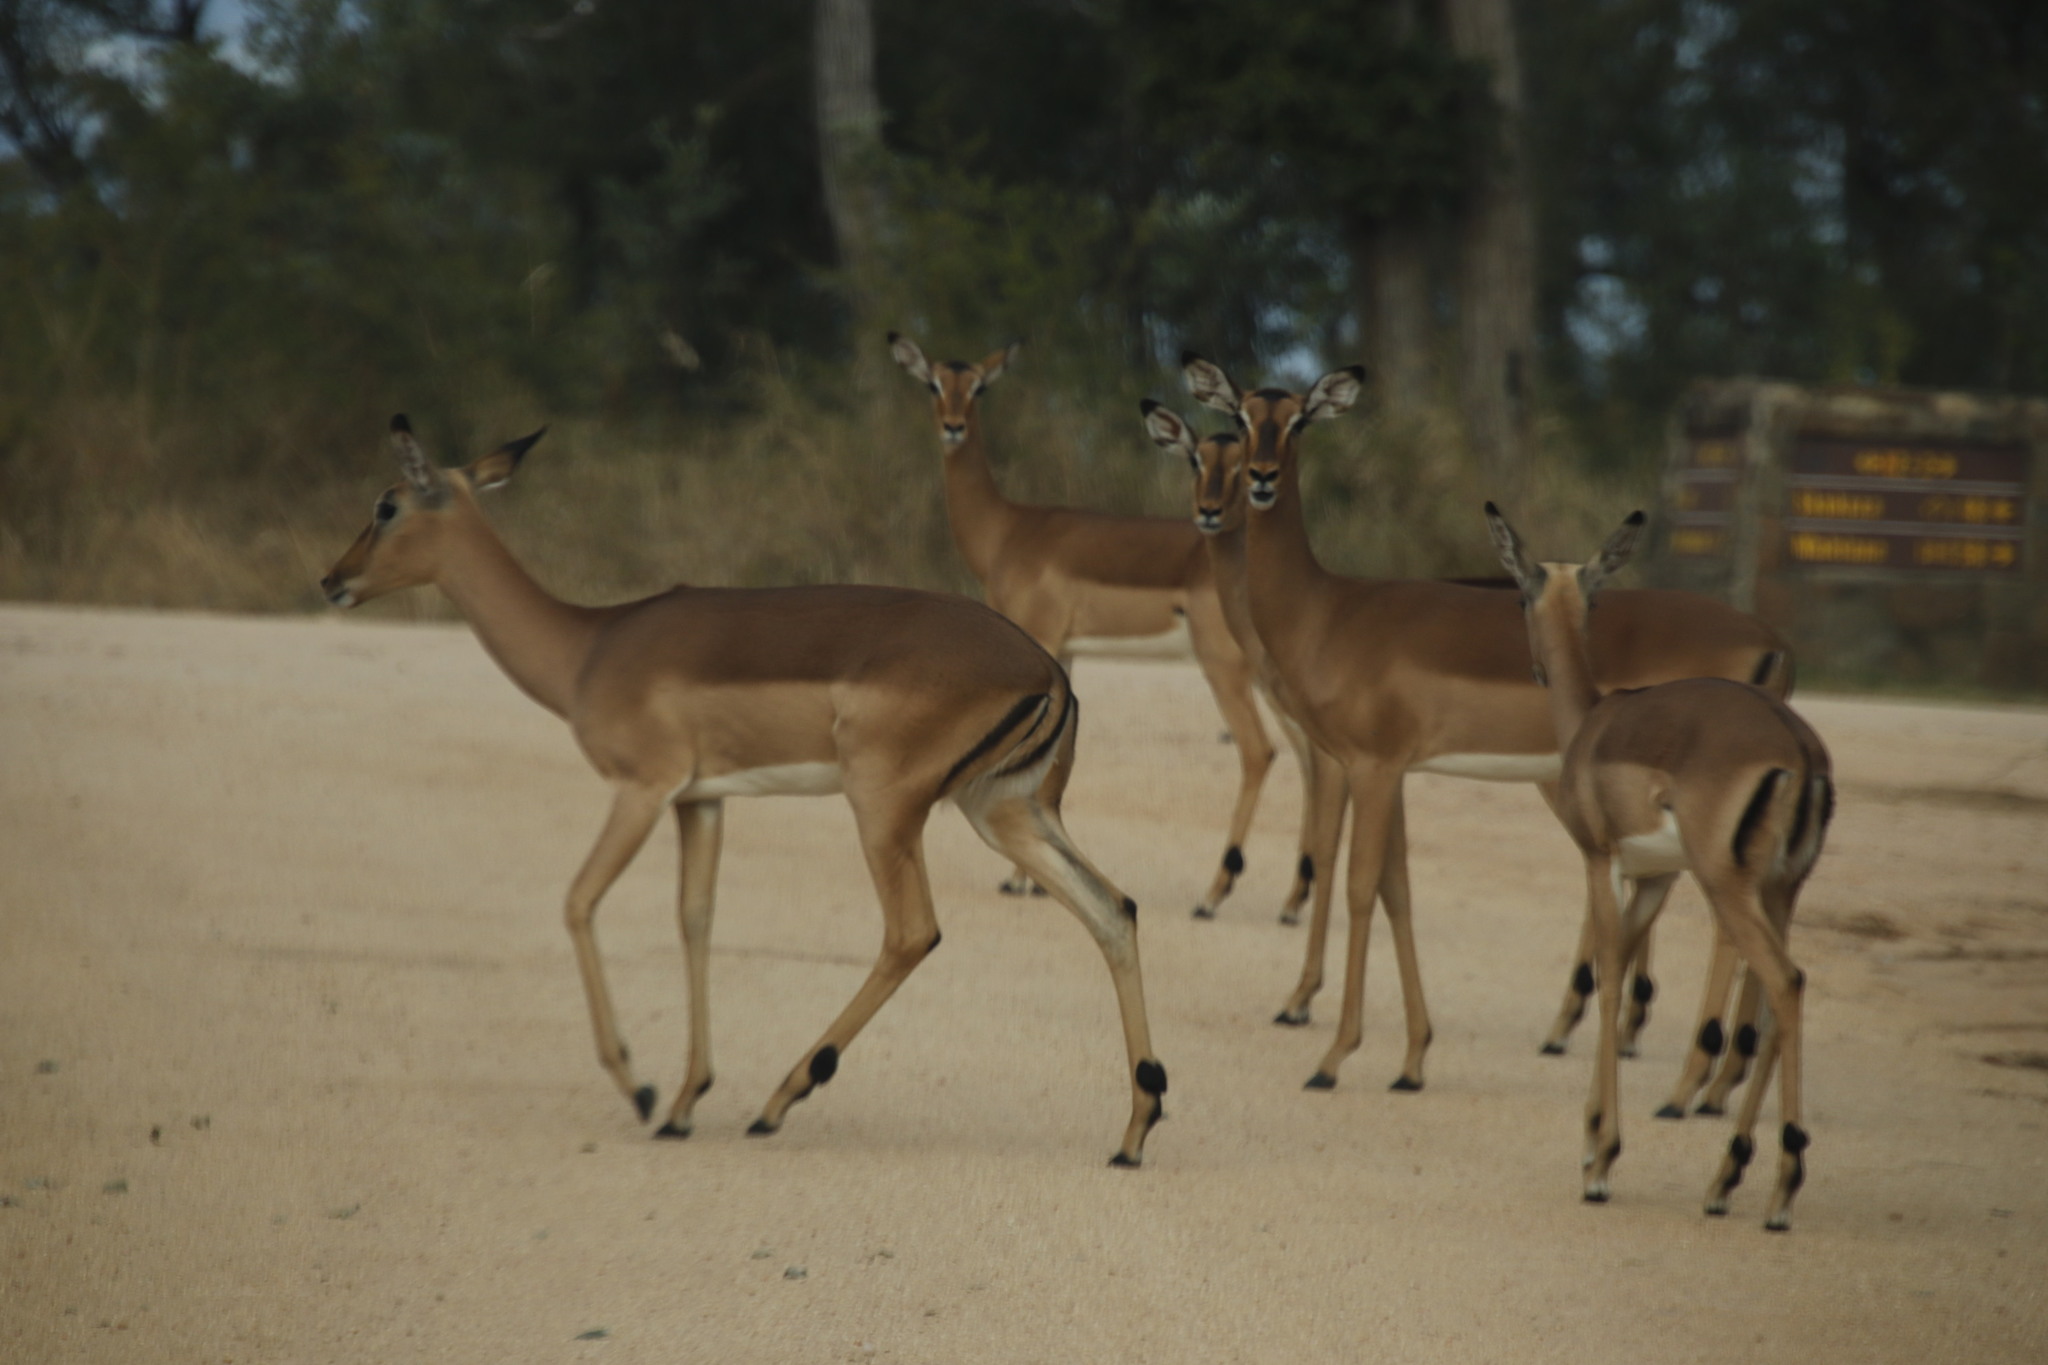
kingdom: Animalia
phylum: Chordata
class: Mammalia
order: Artiodactyla
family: Bovidae
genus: Aepyceros
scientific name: Aepyceros melampus
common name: Impala
